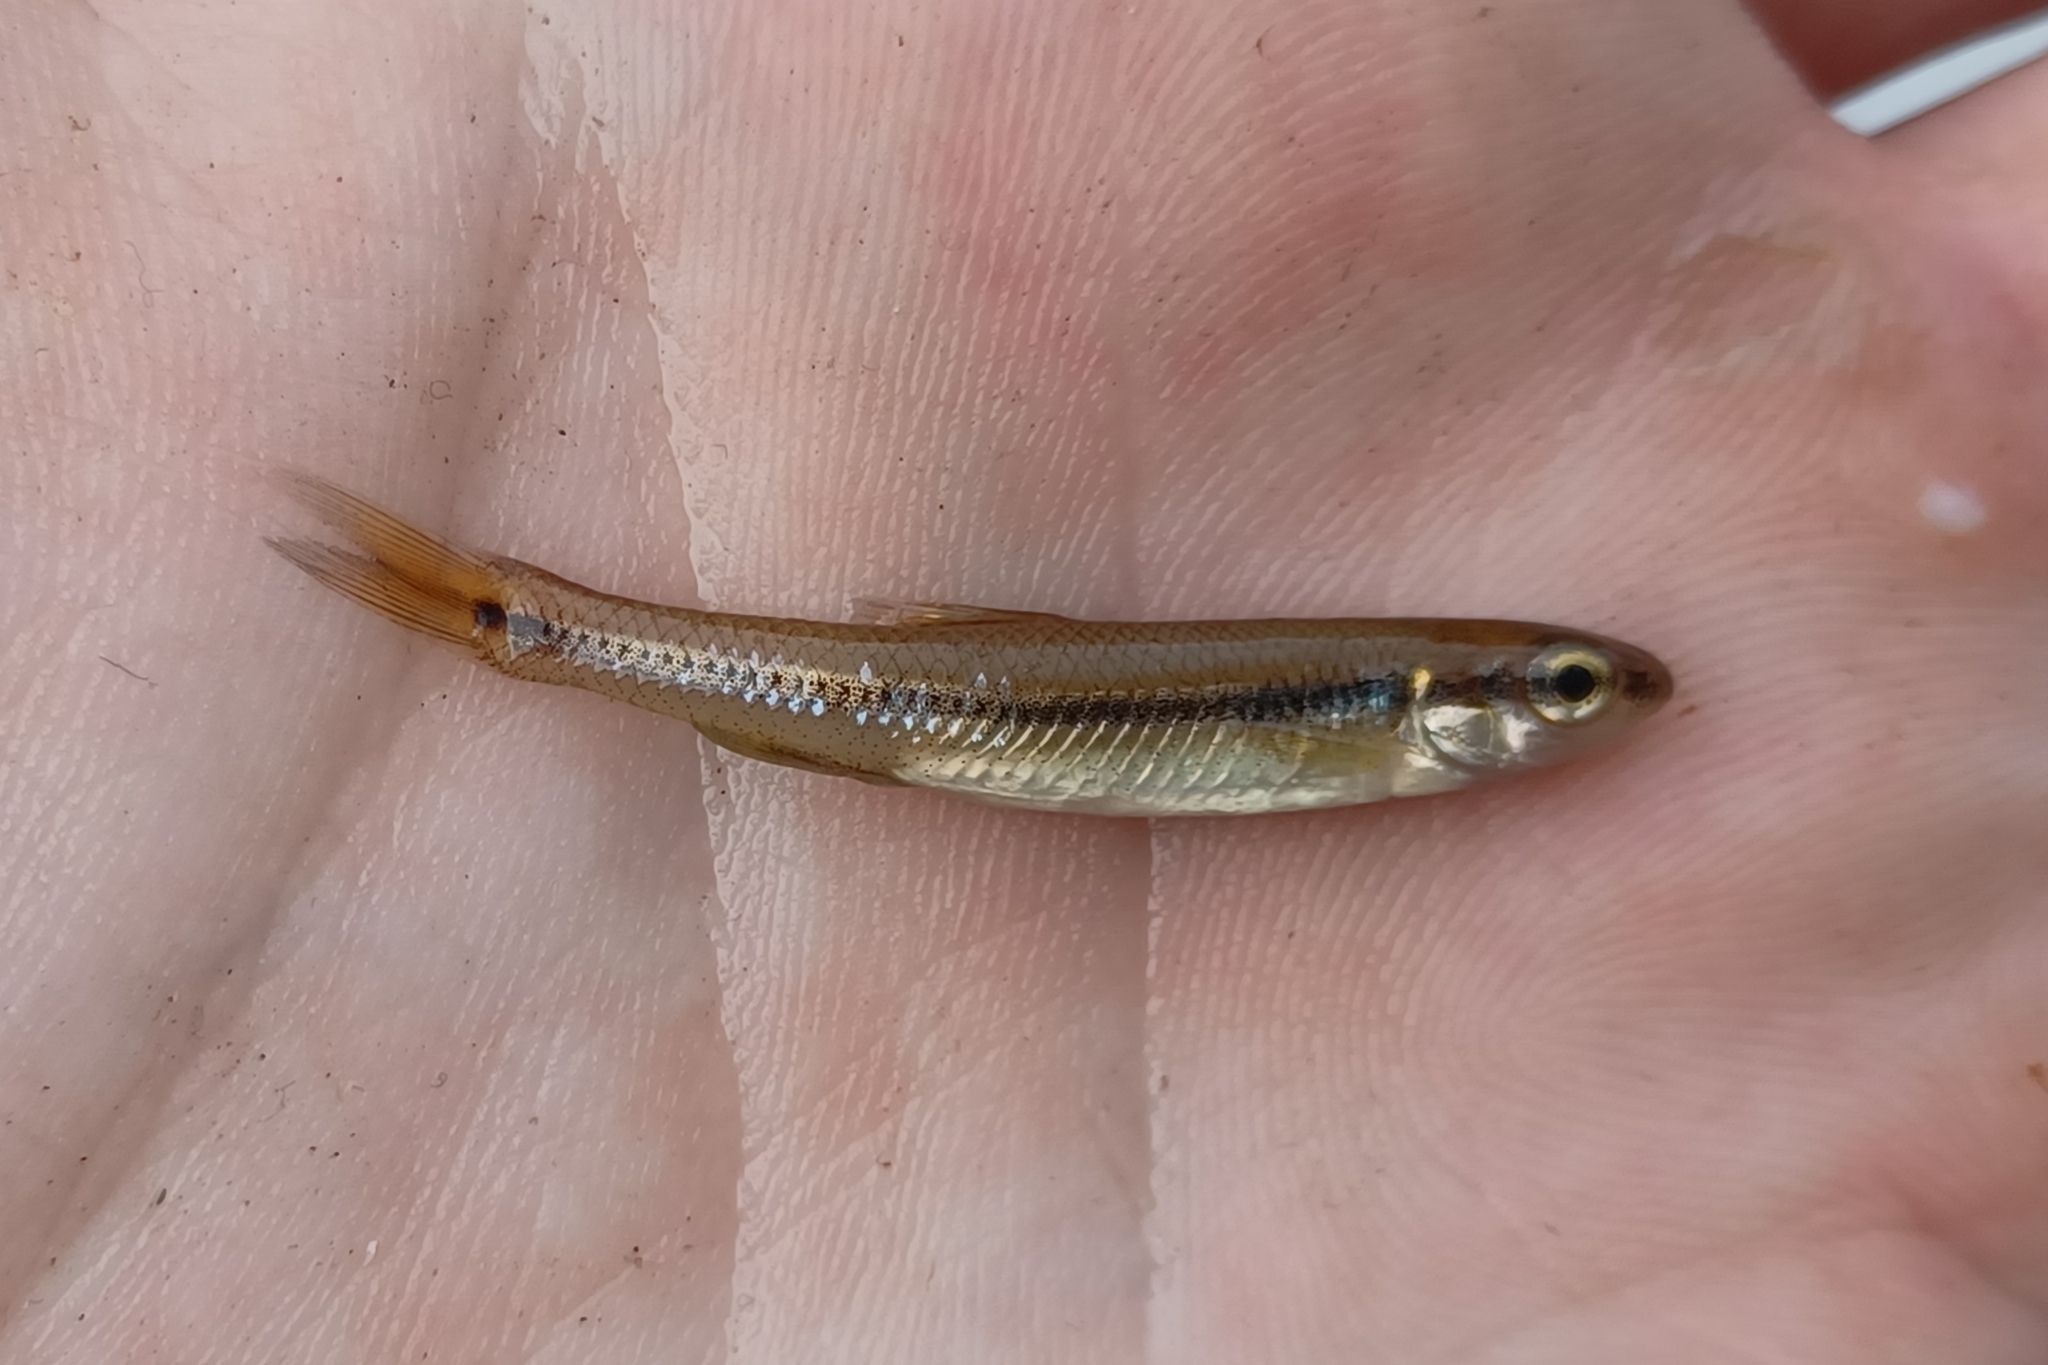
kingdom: Animalia
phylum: Chordata
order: Cypriniformes
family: Cyprinidae
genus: Pimephales
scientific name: Pimephales notatus
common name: Bluntnose minnow
